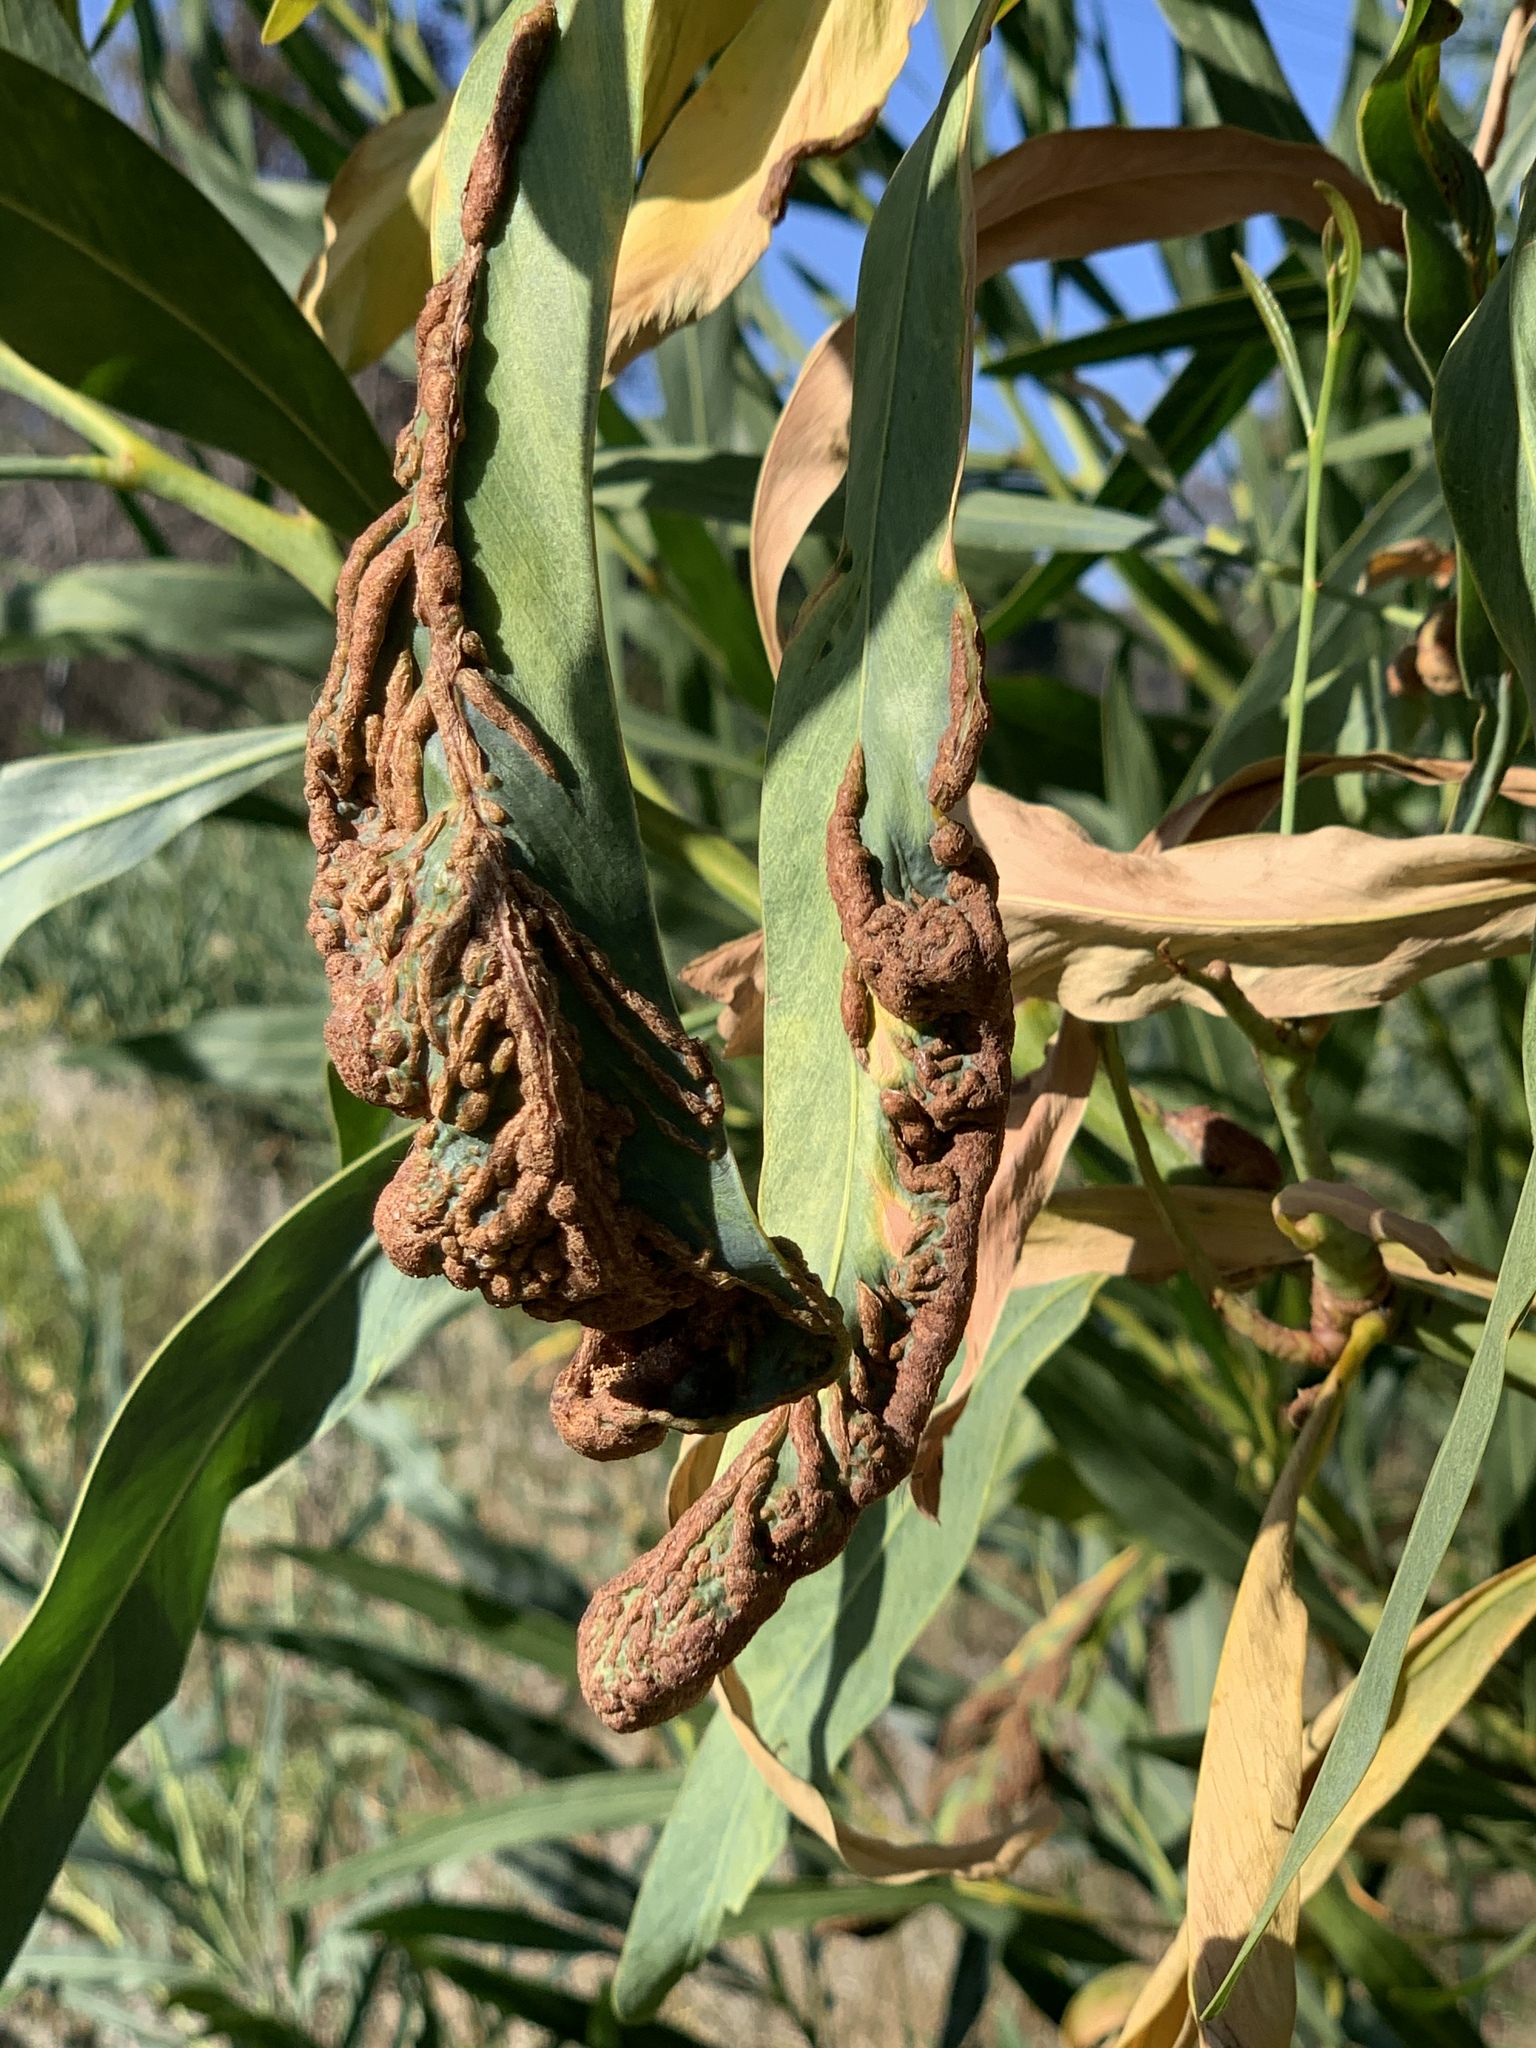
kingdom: Fungi
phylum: Basidiomycota
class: Pucciniomycetes
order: Pucciniales
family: Uromycladiaceae
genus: Uromycladium
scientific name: Uromycladium morrisii
